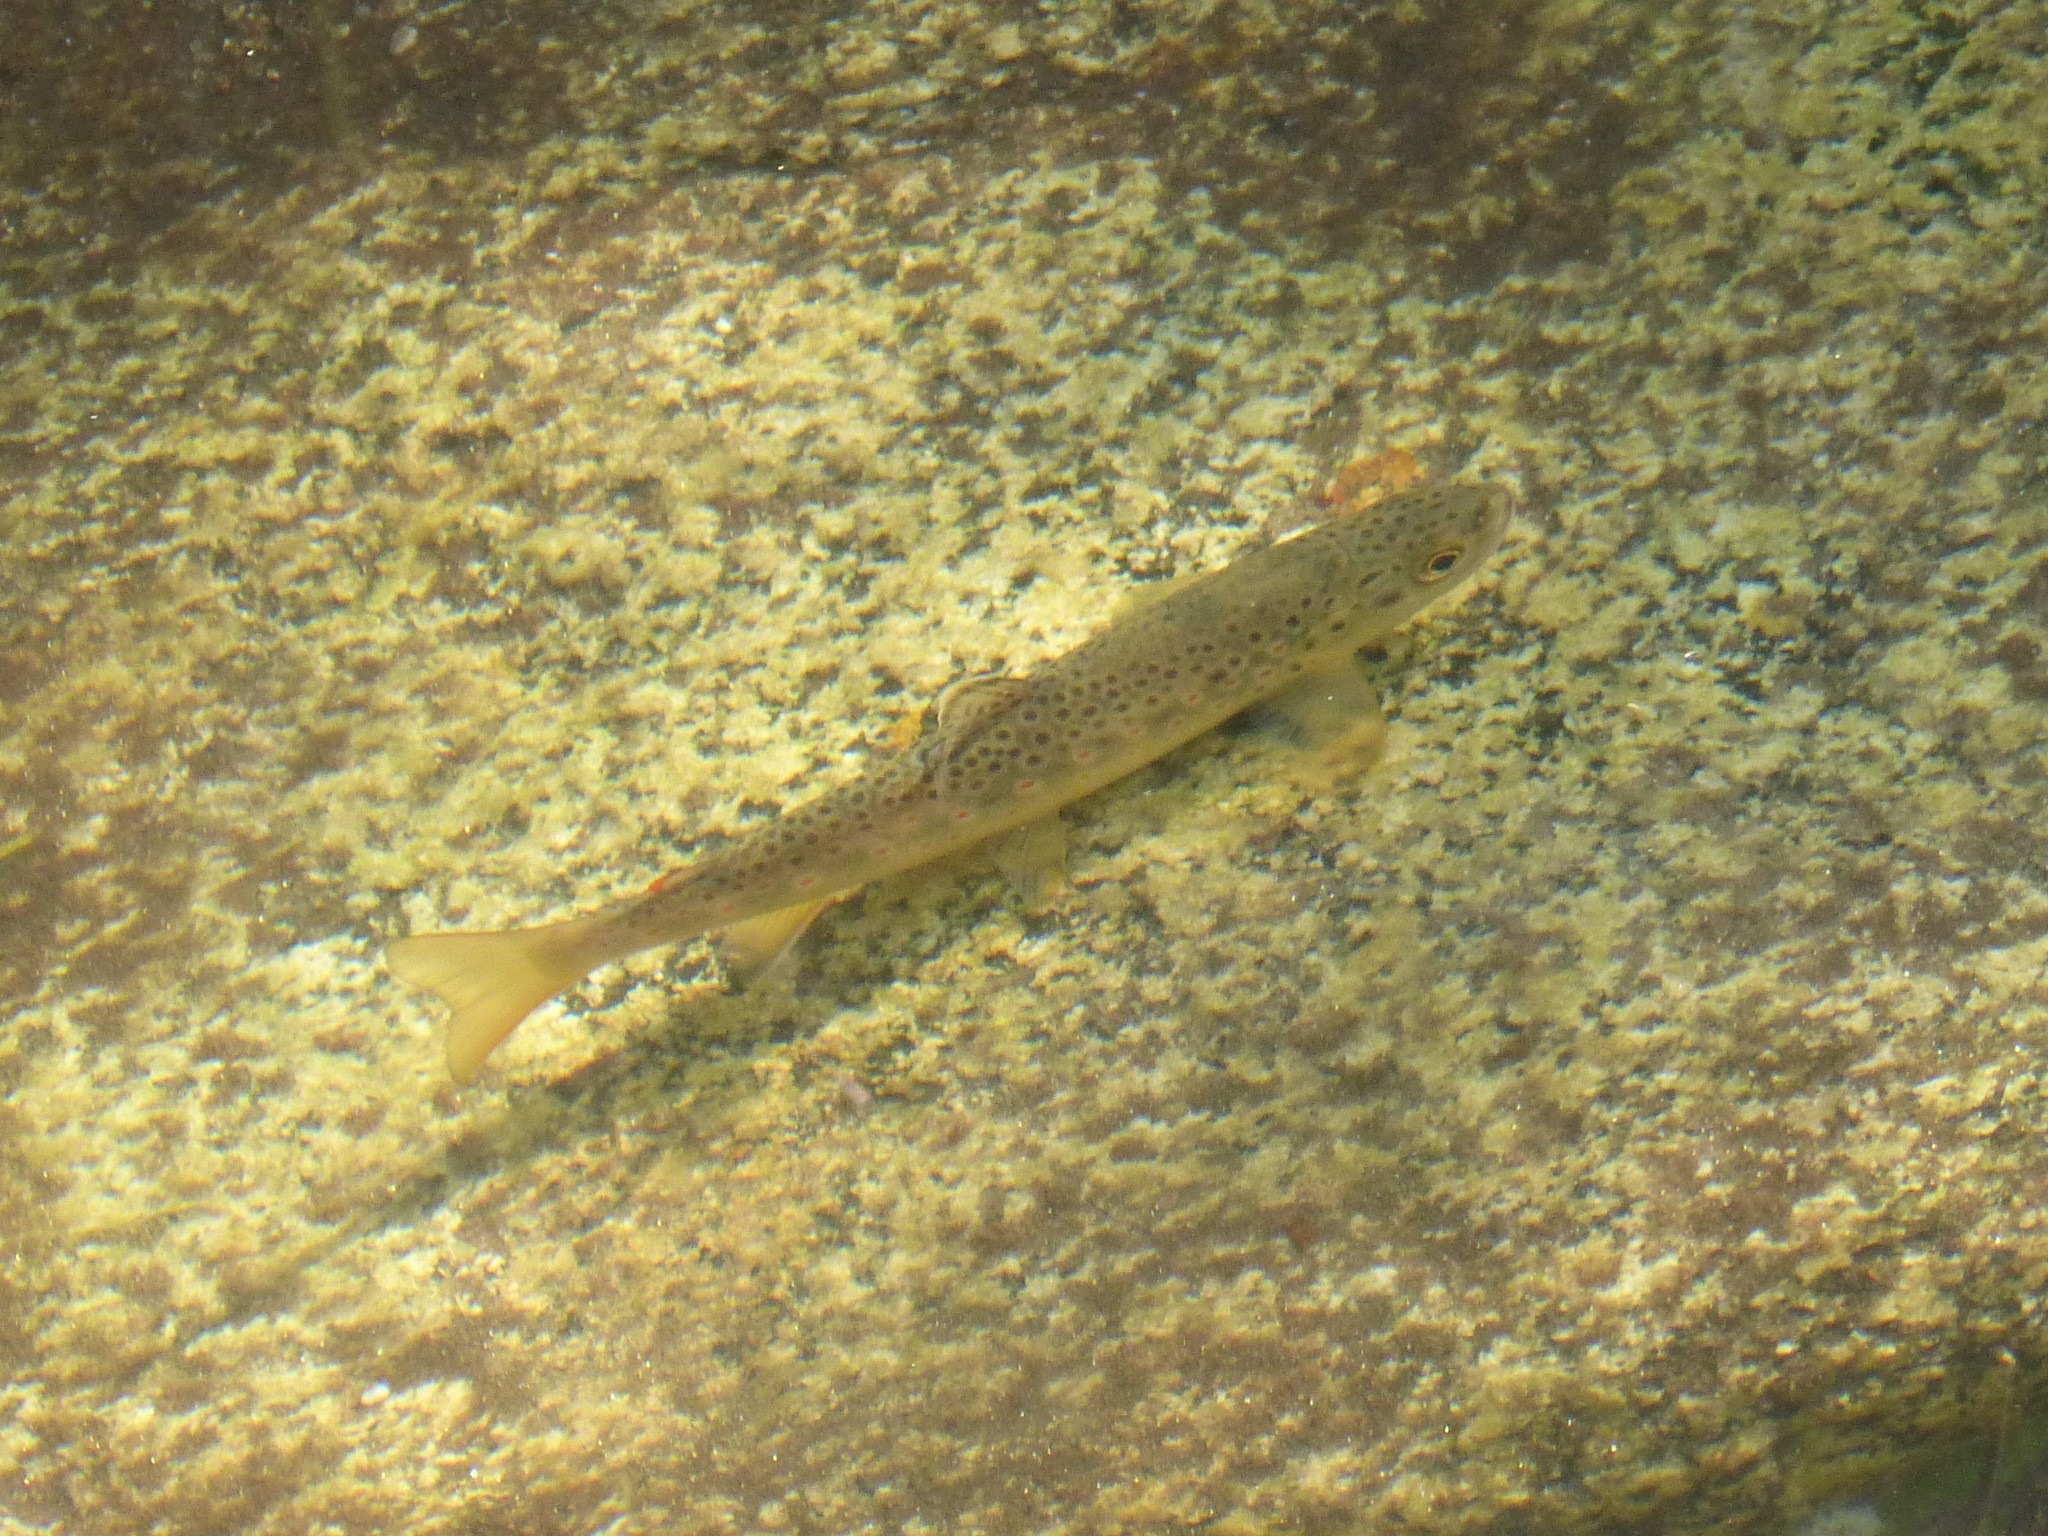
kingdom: Animalia
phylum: Chordata
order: Salmoniformes
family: Salmonidae
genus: Salmo
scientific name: Salmo trutta
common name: Brown trout
